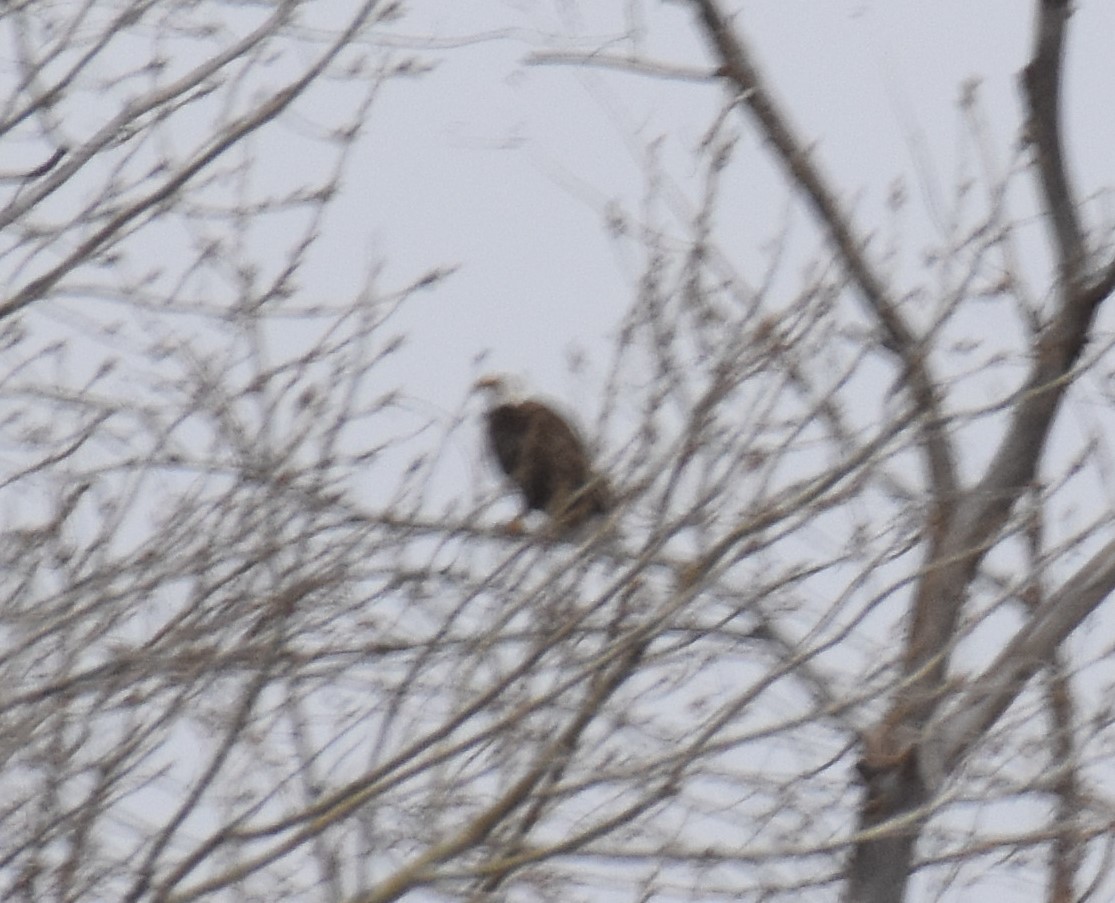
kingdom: Animalia
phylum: Chordata
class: Aves
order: Accipitriformes
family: Accipitridae
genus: Haliaeetus
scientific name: Haliaeetus leucocephalus
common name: Bald eagle
